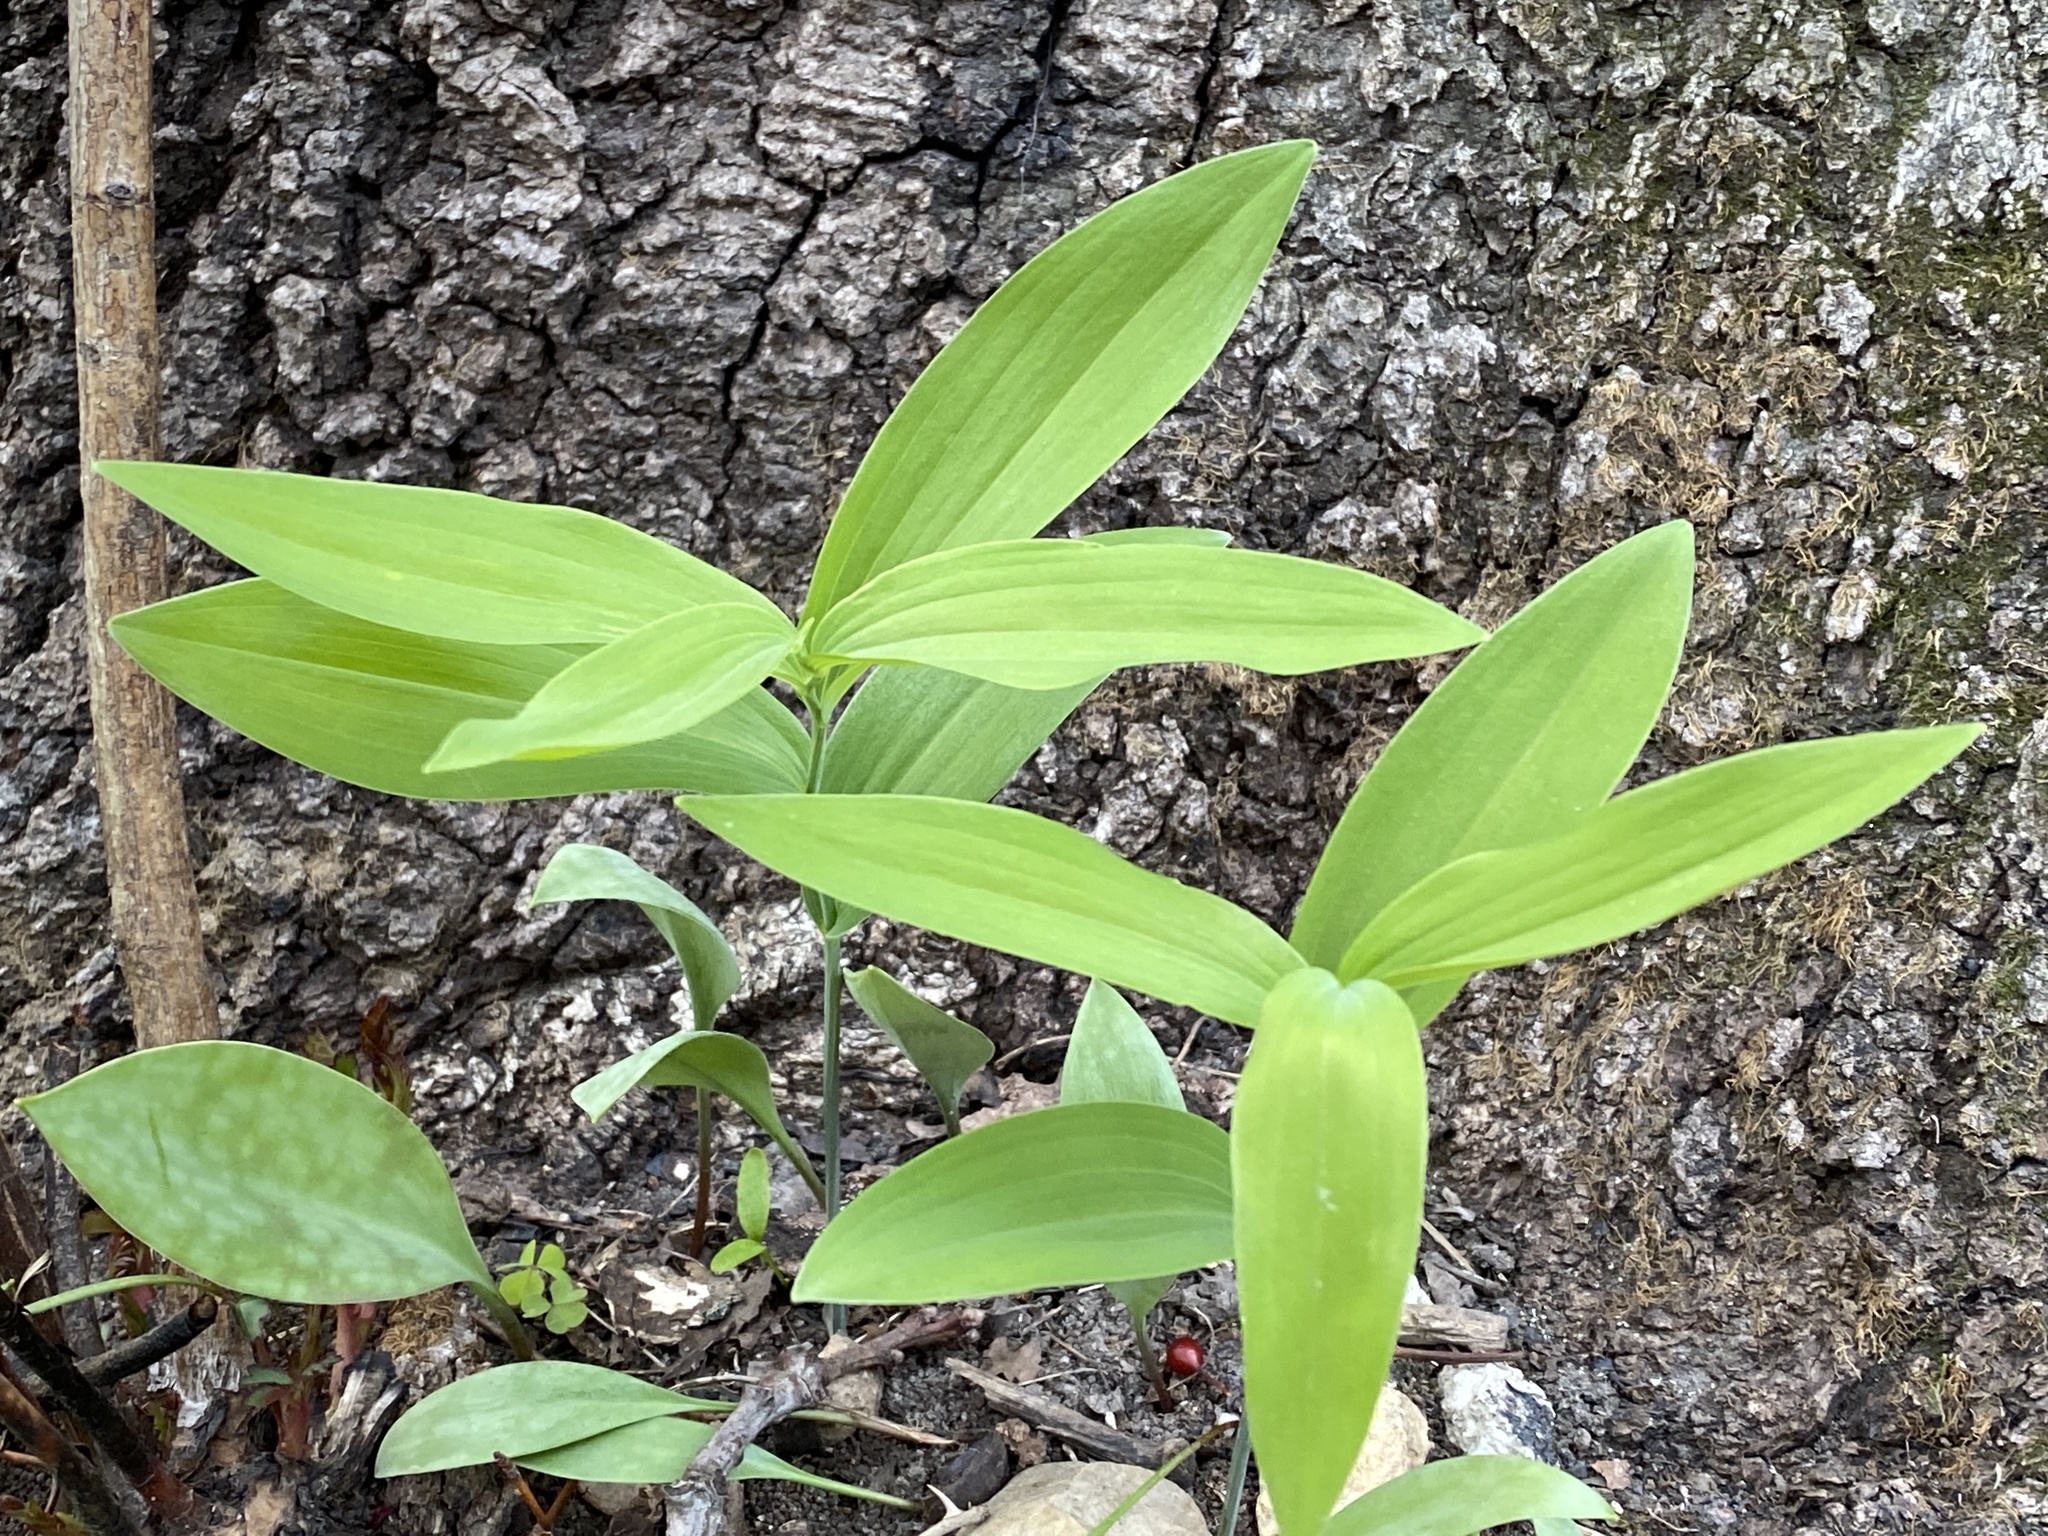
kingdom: Plantae
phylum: Tracheophyta
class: Liliopsida
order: Asparagales
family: Asparagaceae
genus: Polygonatum
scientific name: Polygonatum biflorum
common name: American solomon's-seal
